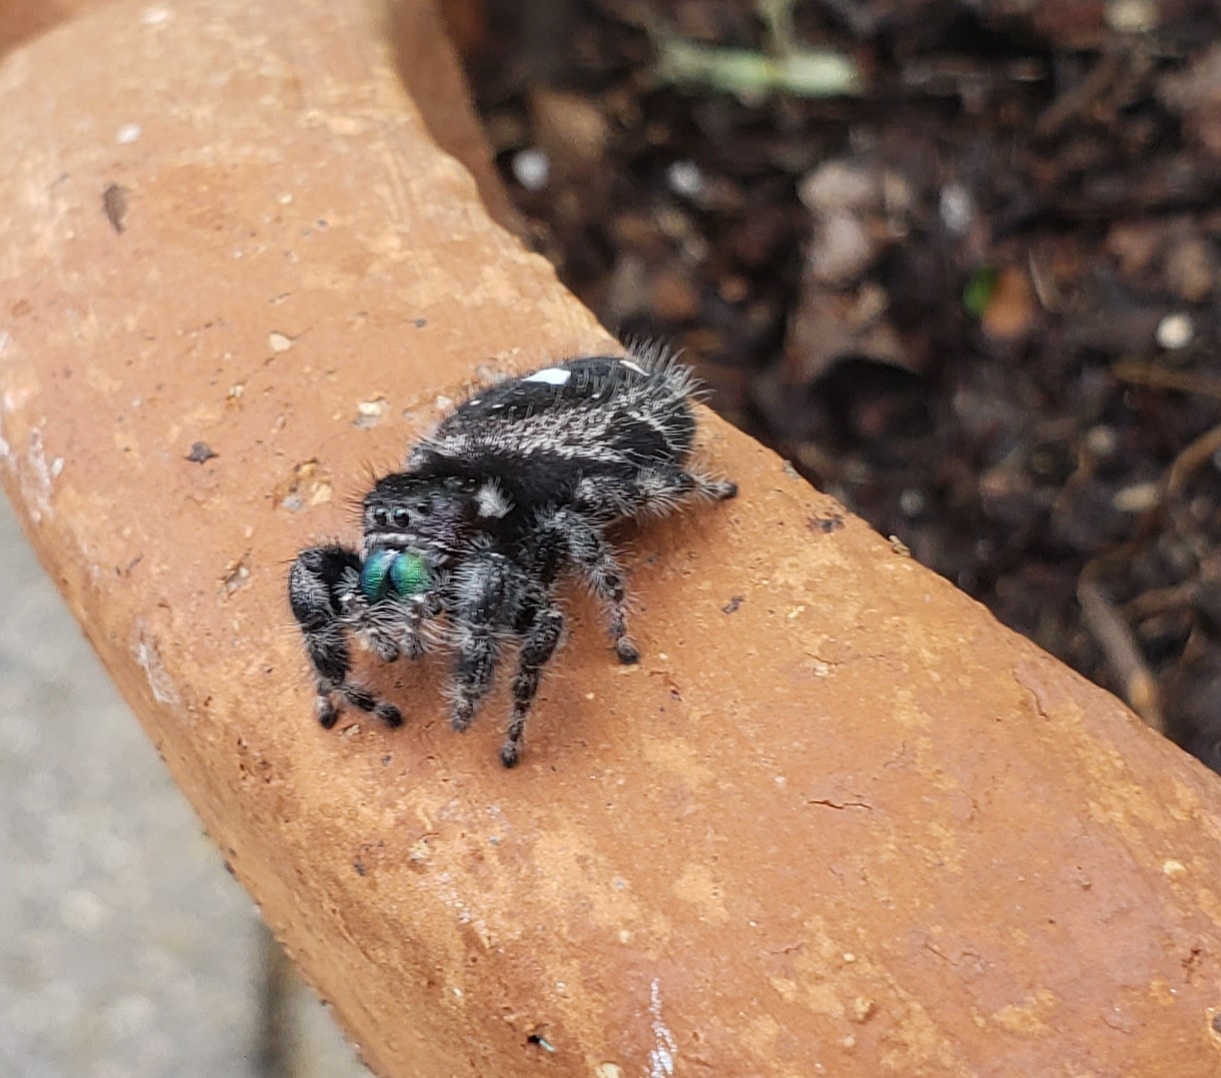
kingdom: Animalia
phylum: Arthropoda
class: Arachnida
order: Araneae
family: Salticidae
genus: Phidippus
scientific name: Phidippus audax
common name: Bold jumper
